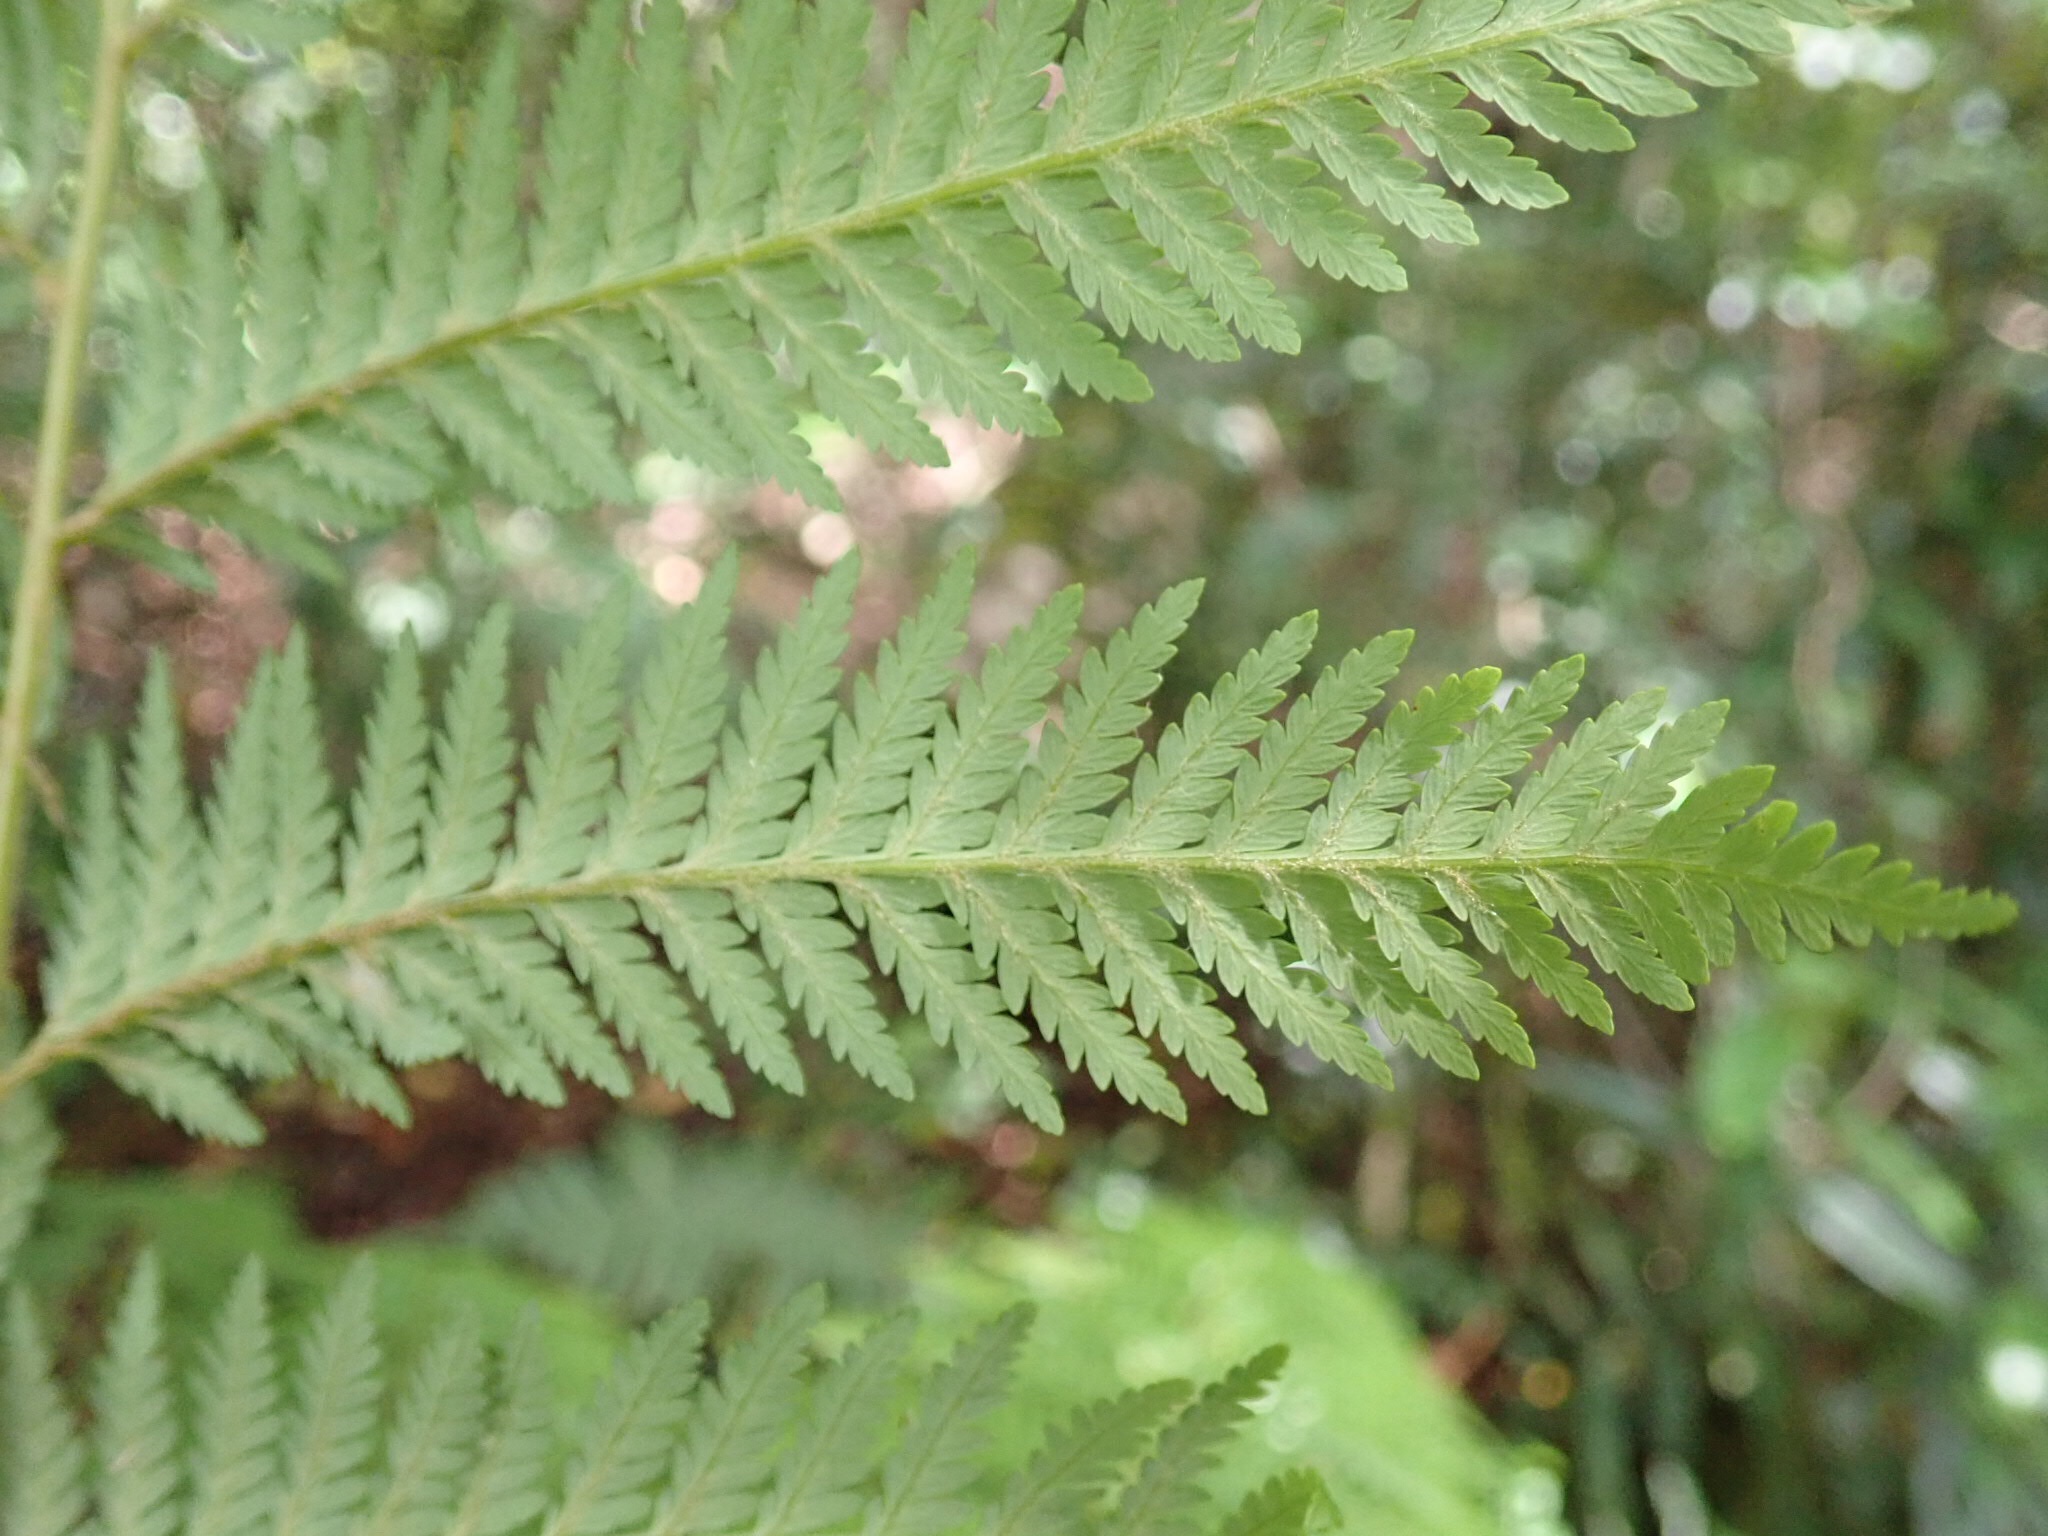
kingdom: Plantae
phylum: Tracheophyta
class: Polypodiopsida
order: Cyatheales
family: Dicksoniaceae
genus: Lophosoria
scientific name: Lophosoria quadripinnata
